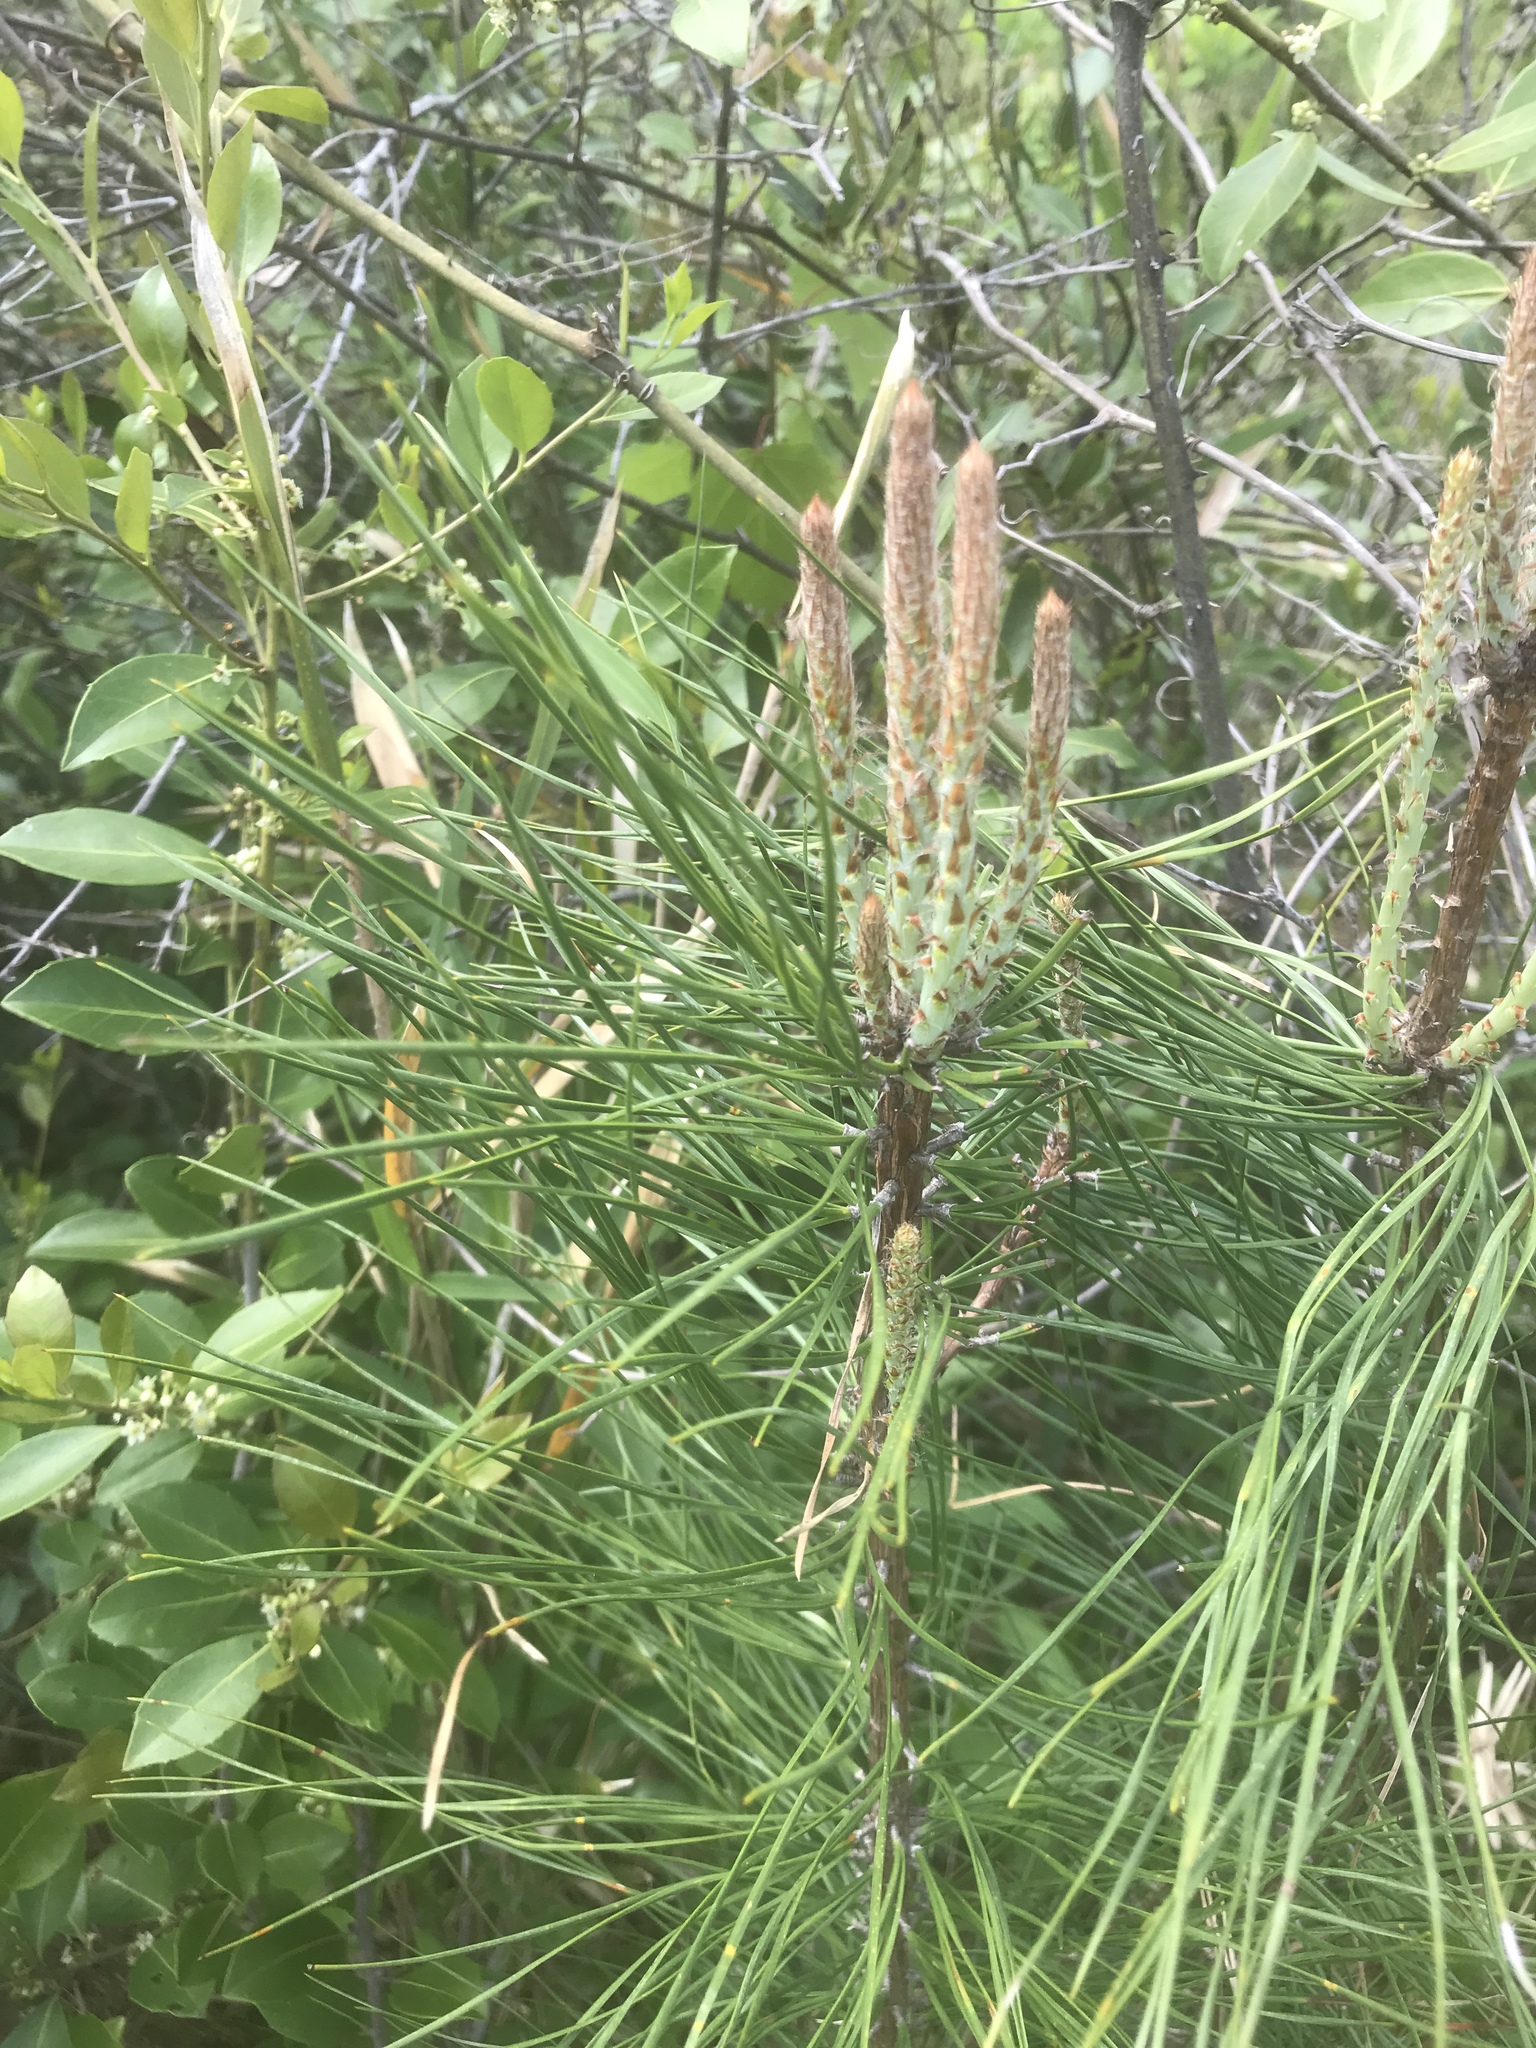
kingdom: Plantae
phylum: Tracheophyta
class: Pinopsida
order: Pinales
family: Pinaceae
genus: Pinus
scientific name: Pinus serotina
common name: Marsh pine
